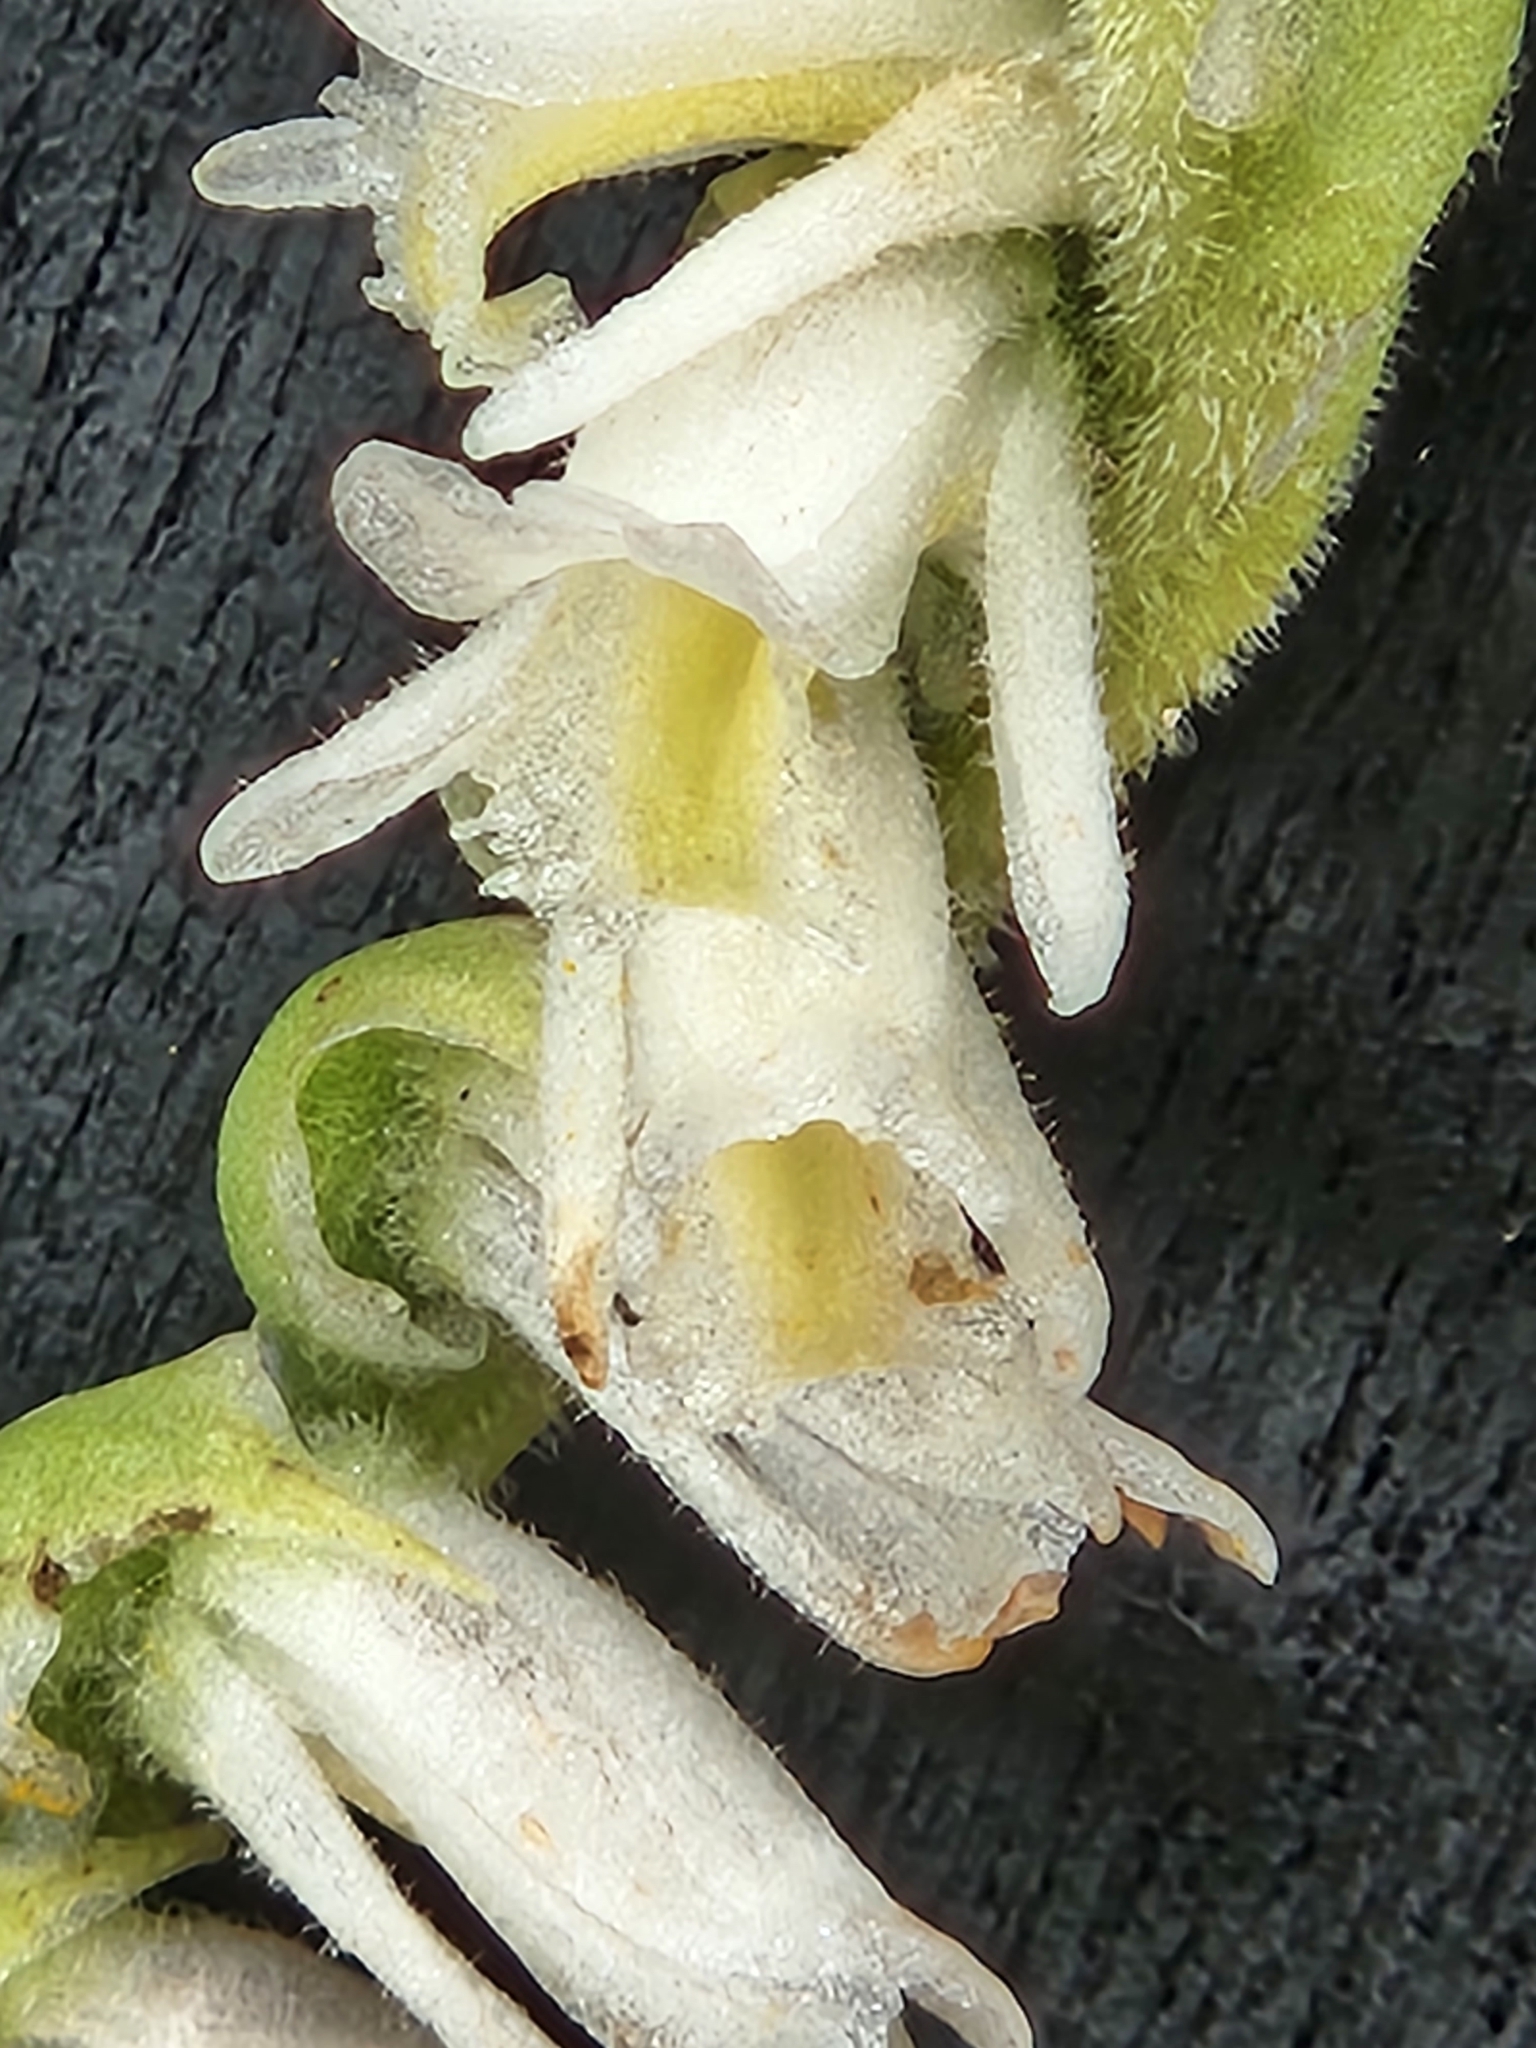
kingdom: Plantae
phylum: Tracheophyta
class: Liliopsida
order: Asparagales
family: Orchidaceae
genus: Spiranthes
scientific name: Spiranthes vernalis
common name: Spring ladies'-tresses
